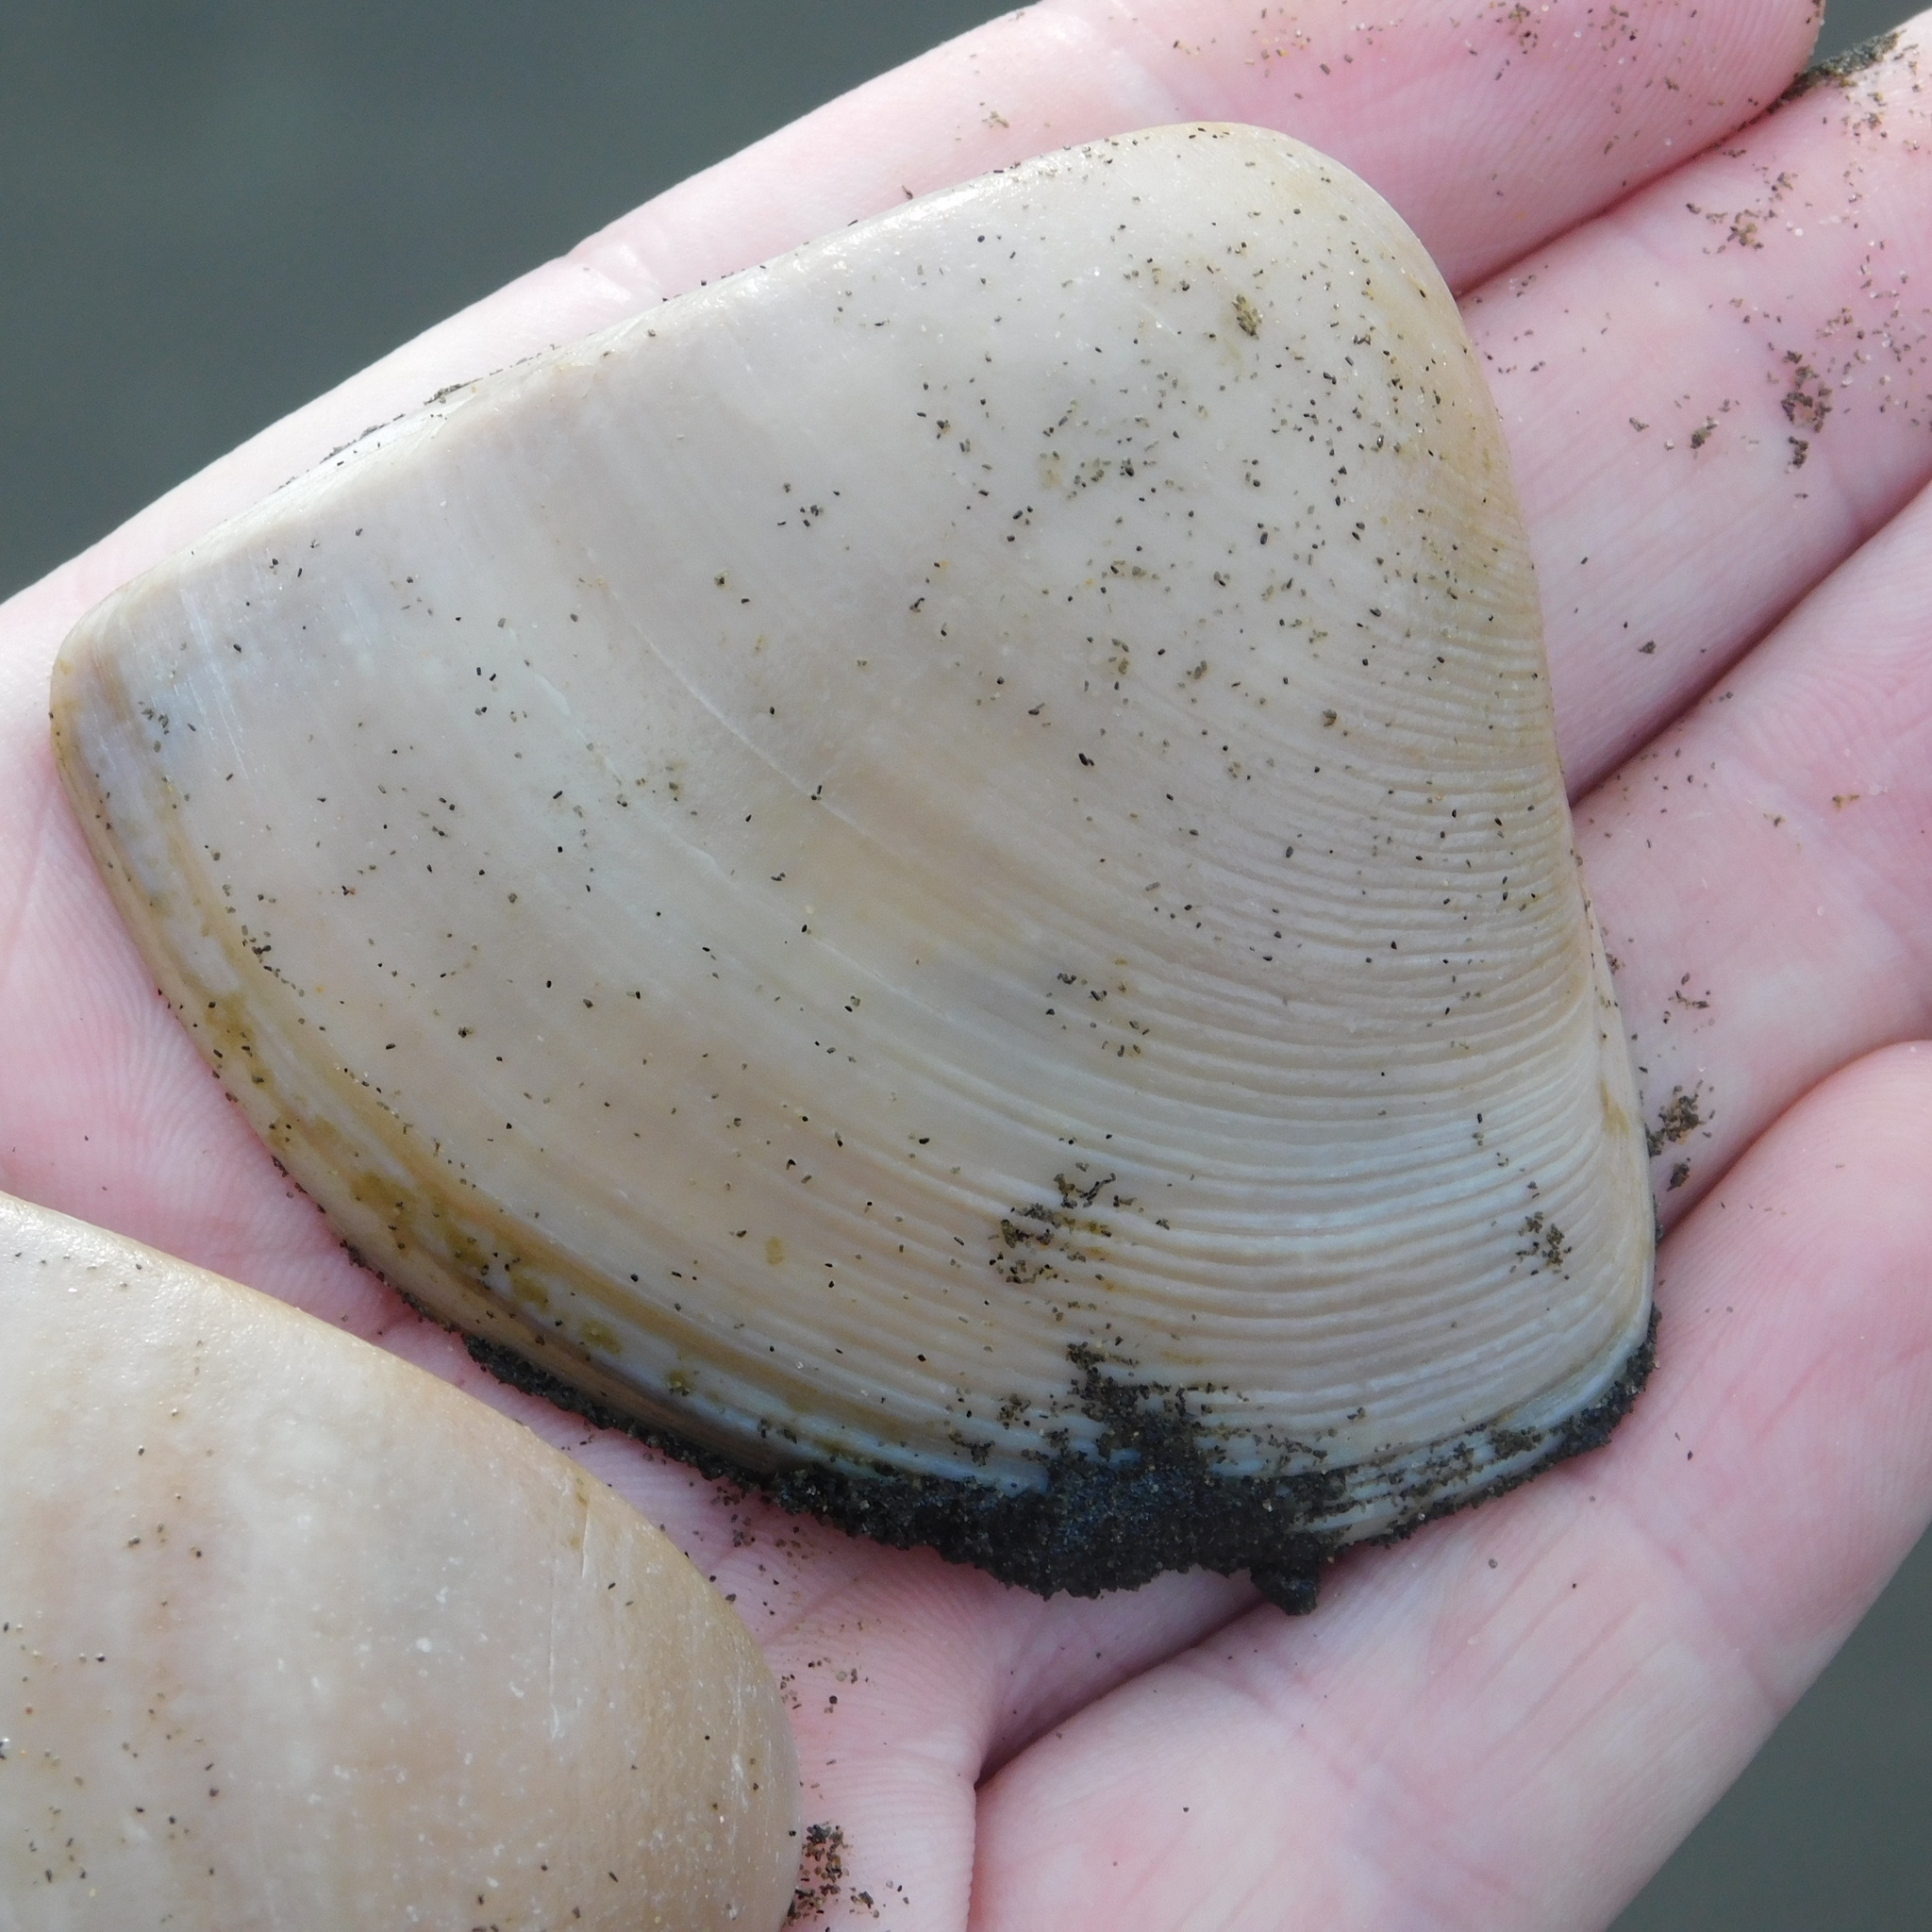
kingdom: Animalia
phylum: Mollusca
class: Bivalvia
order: Venerida
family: Mactridae
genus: Crassula
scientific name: Crassula aequilatera
